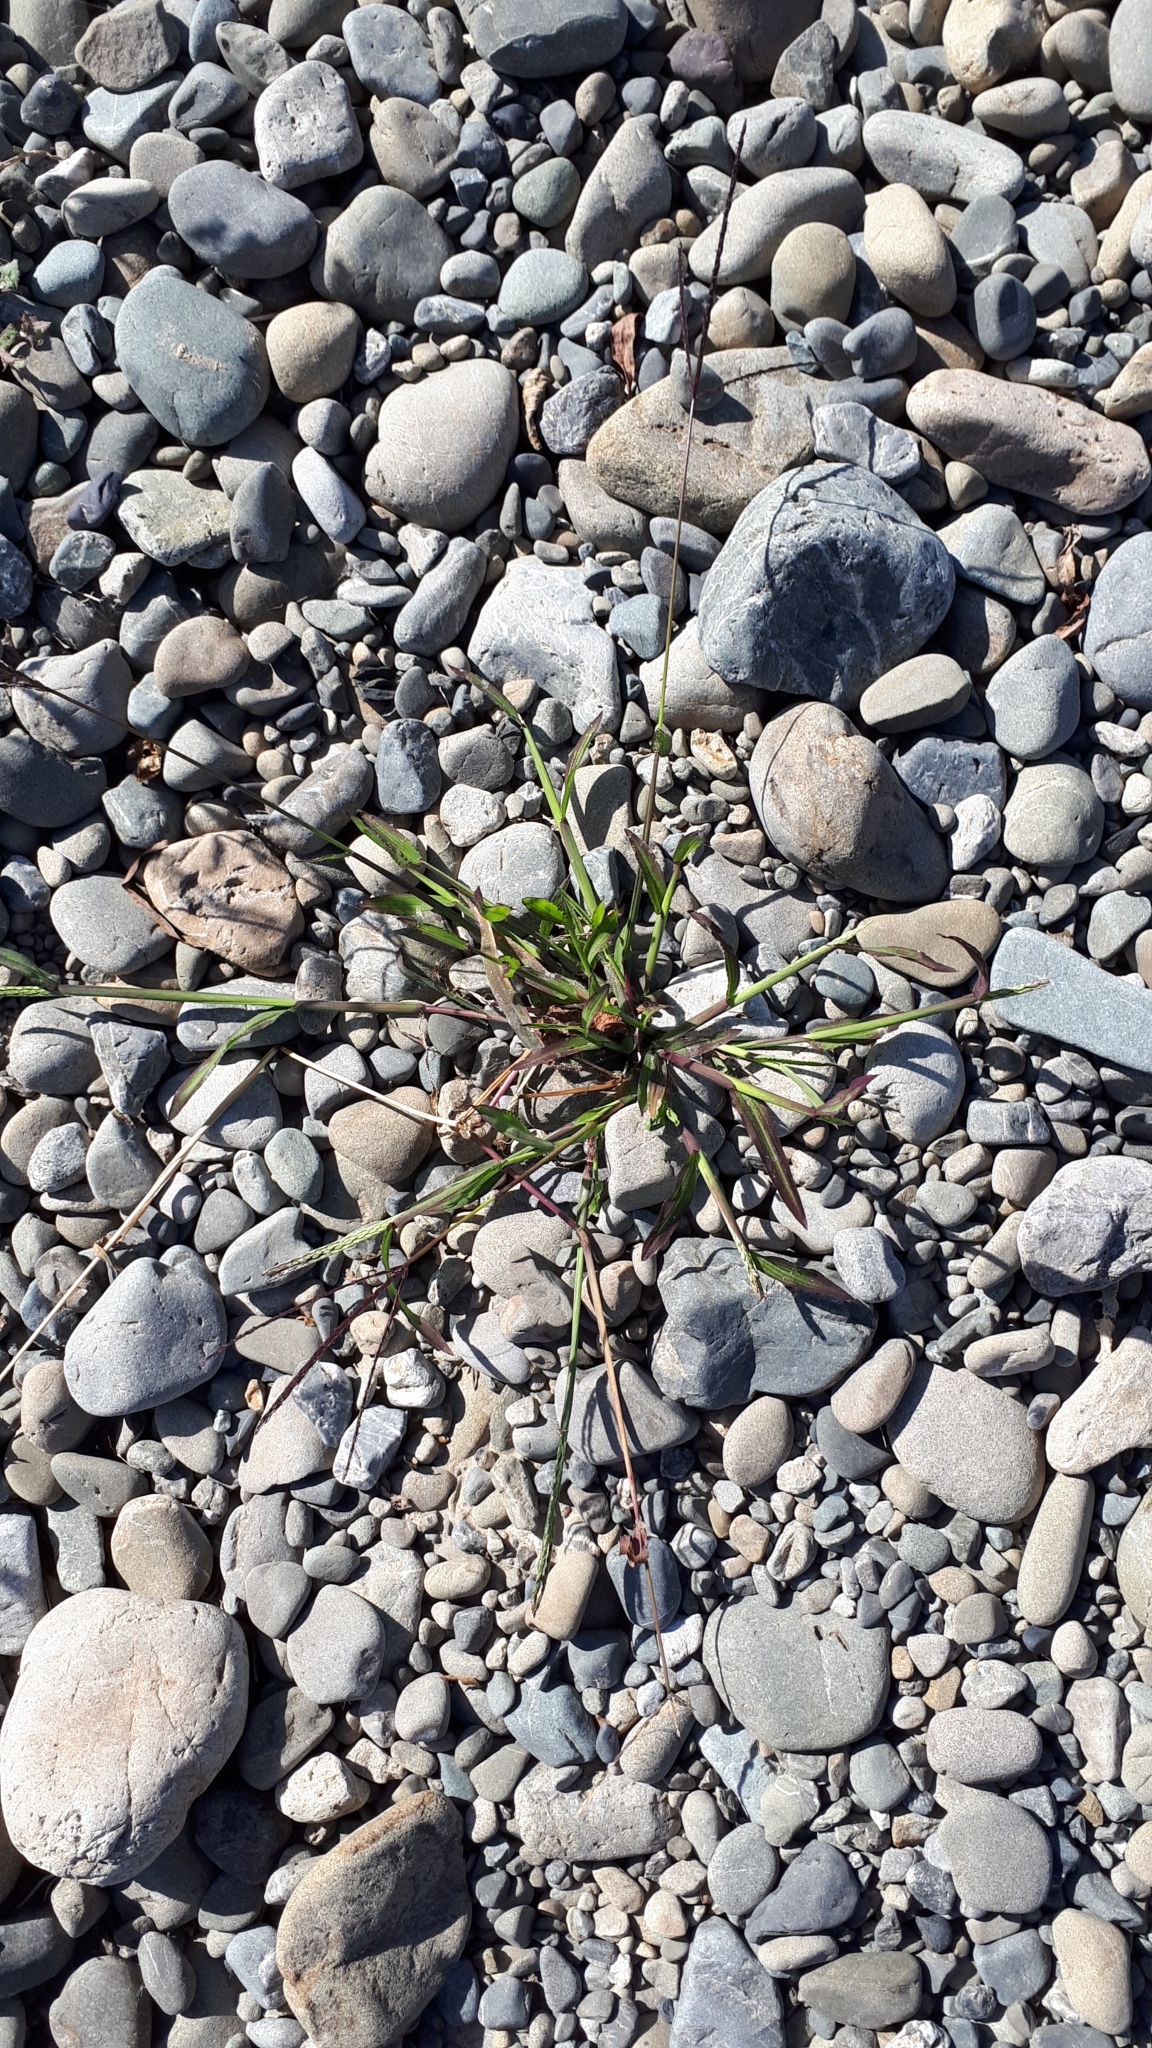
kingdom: Plantae
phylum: Tracheophyta
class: Liliopsida
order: Poales
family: Poaceae
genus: Digitaria
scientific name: Digitaria sanguinalis
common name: Hairy crabgrass
